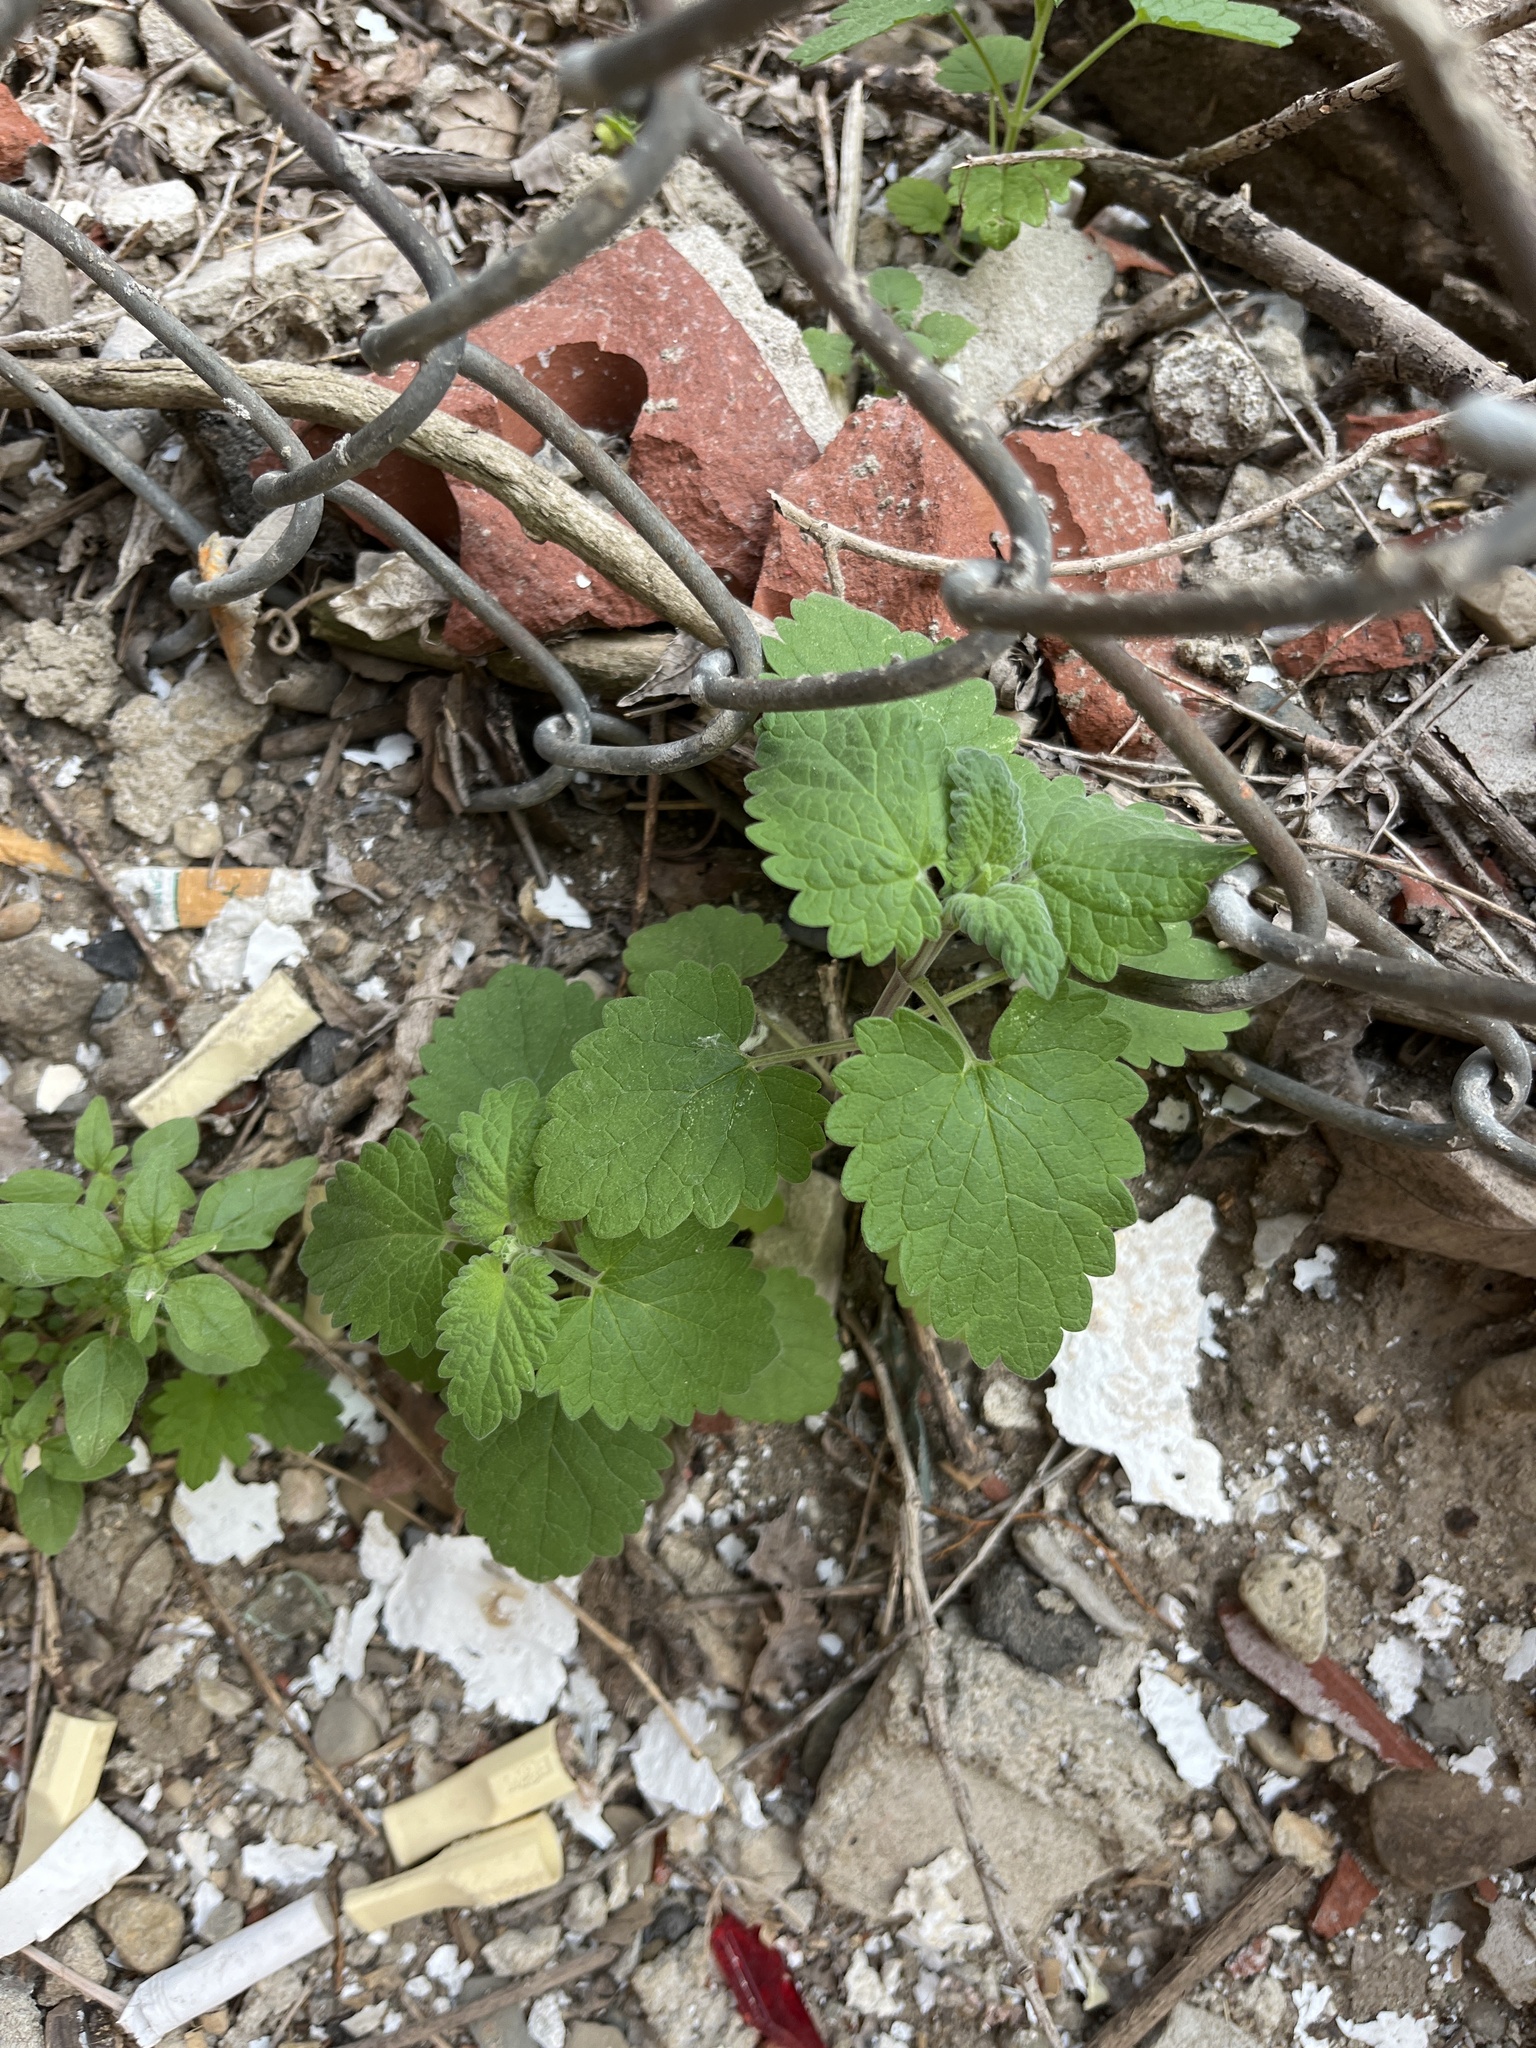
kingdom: Plantae
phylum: Tracheophyta
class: Magnoliopsida
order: Lamiales
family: Lamiaceae
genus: Nepeta
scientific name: Nepeta cataria
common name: Catnip
